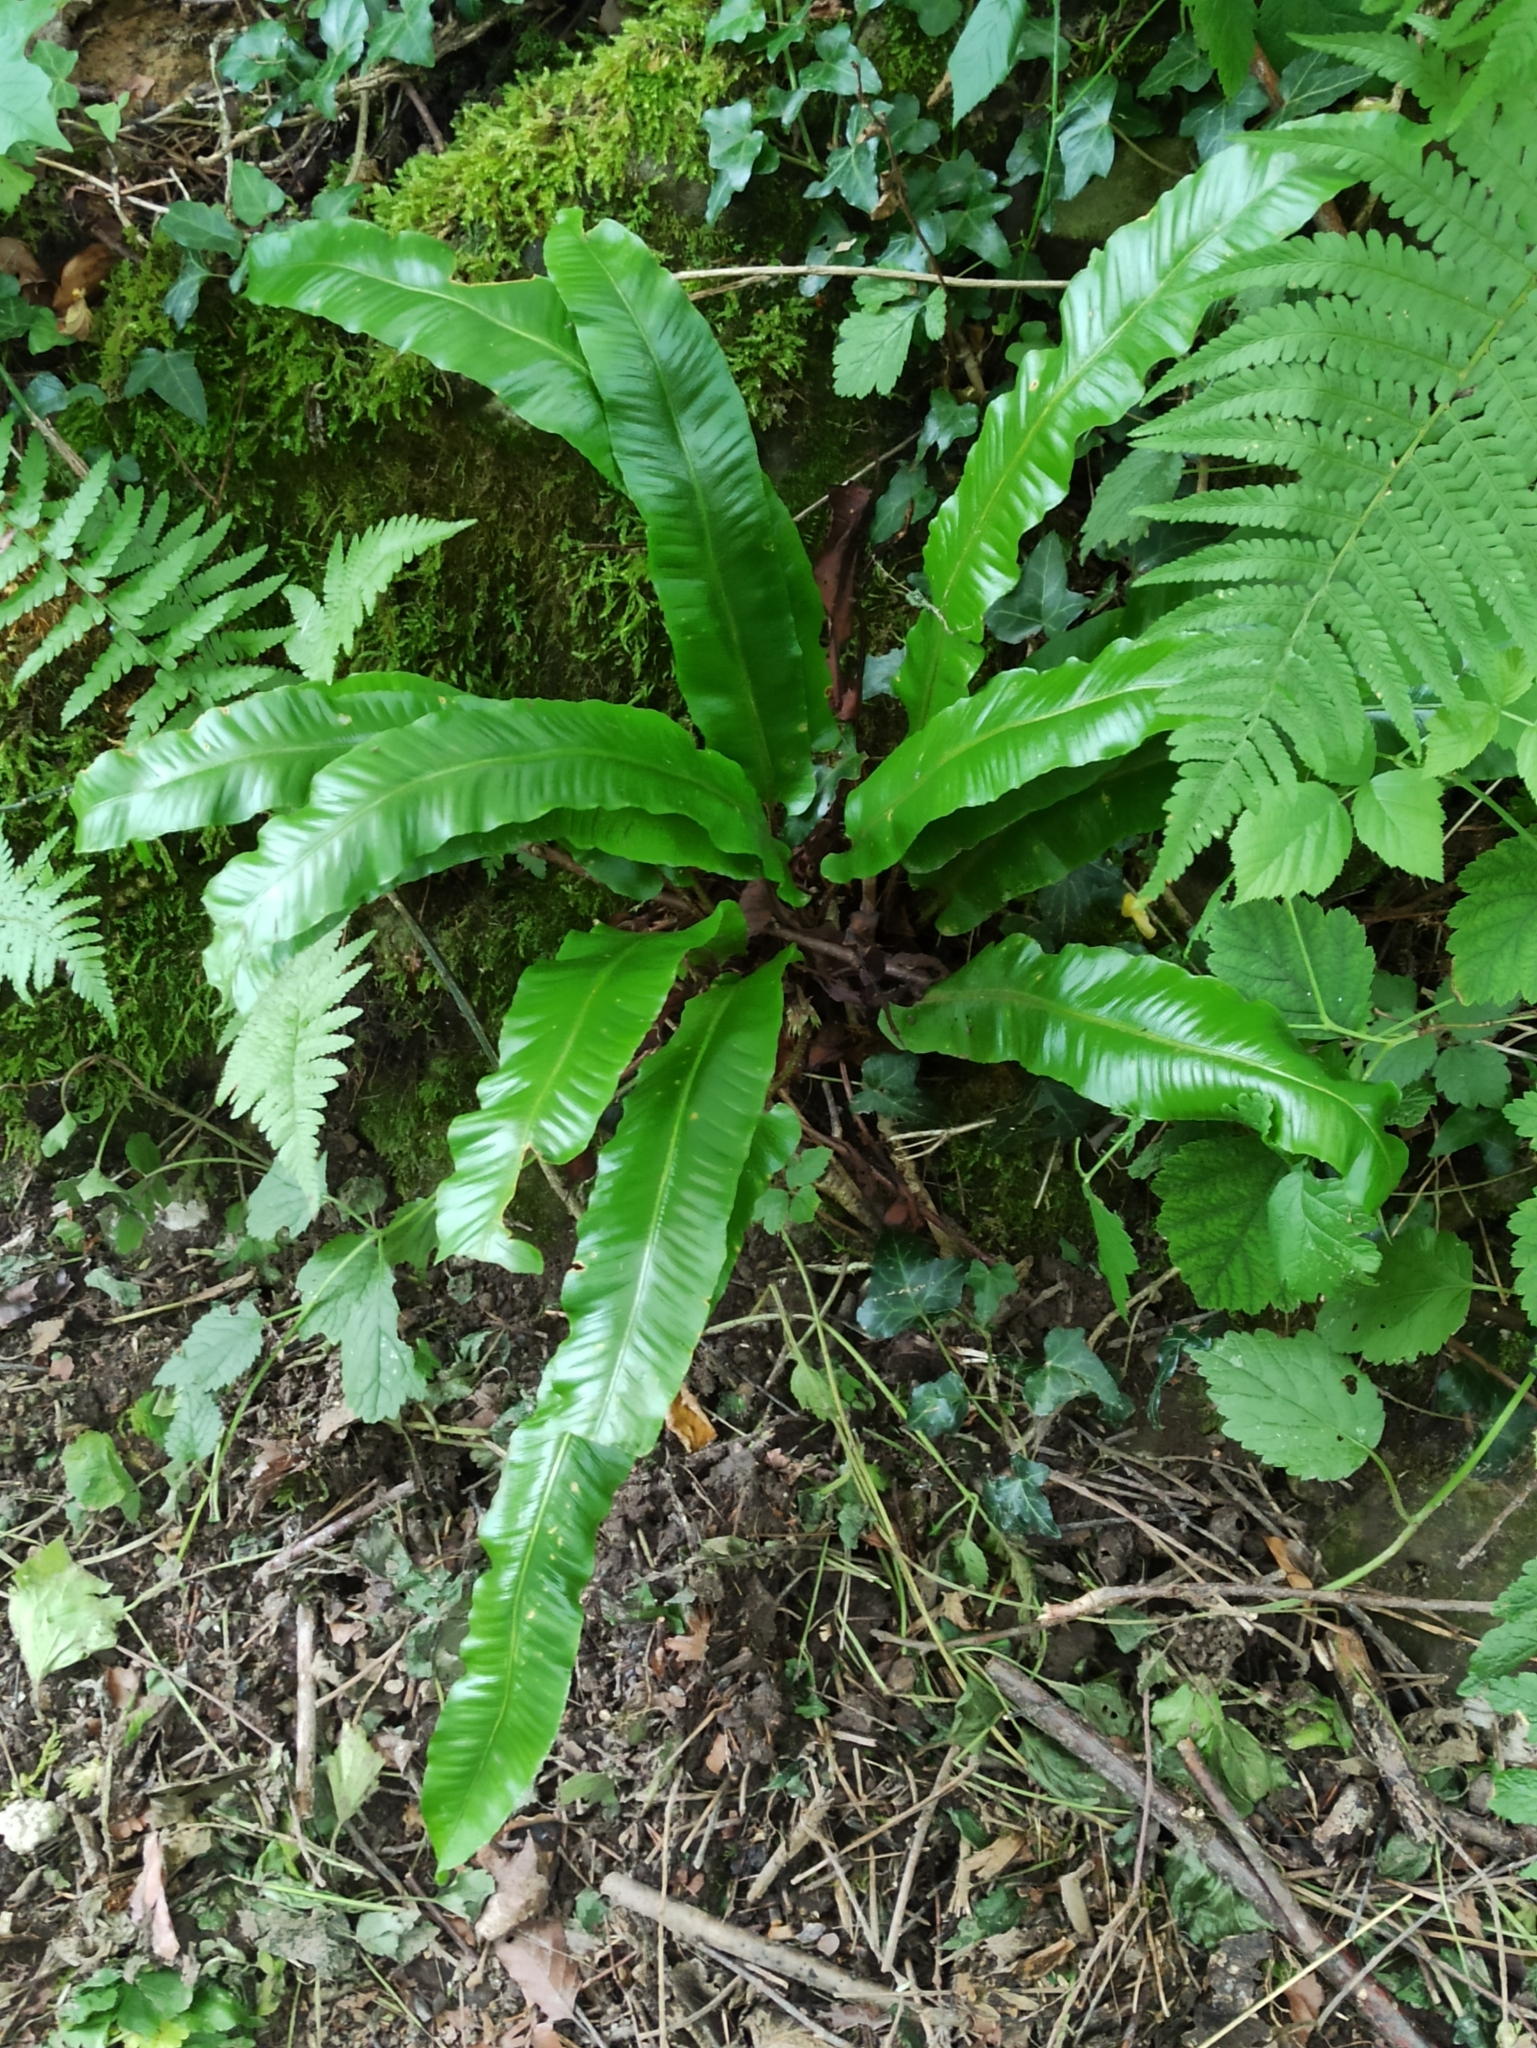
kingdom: Plantae
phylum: Tracheophyta
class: Polypodiopsida
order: Polypodiales
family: Aspleniaceae
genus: Asplenium
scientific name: Asplenium scolopendrium
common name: Hart's-tongue fern
